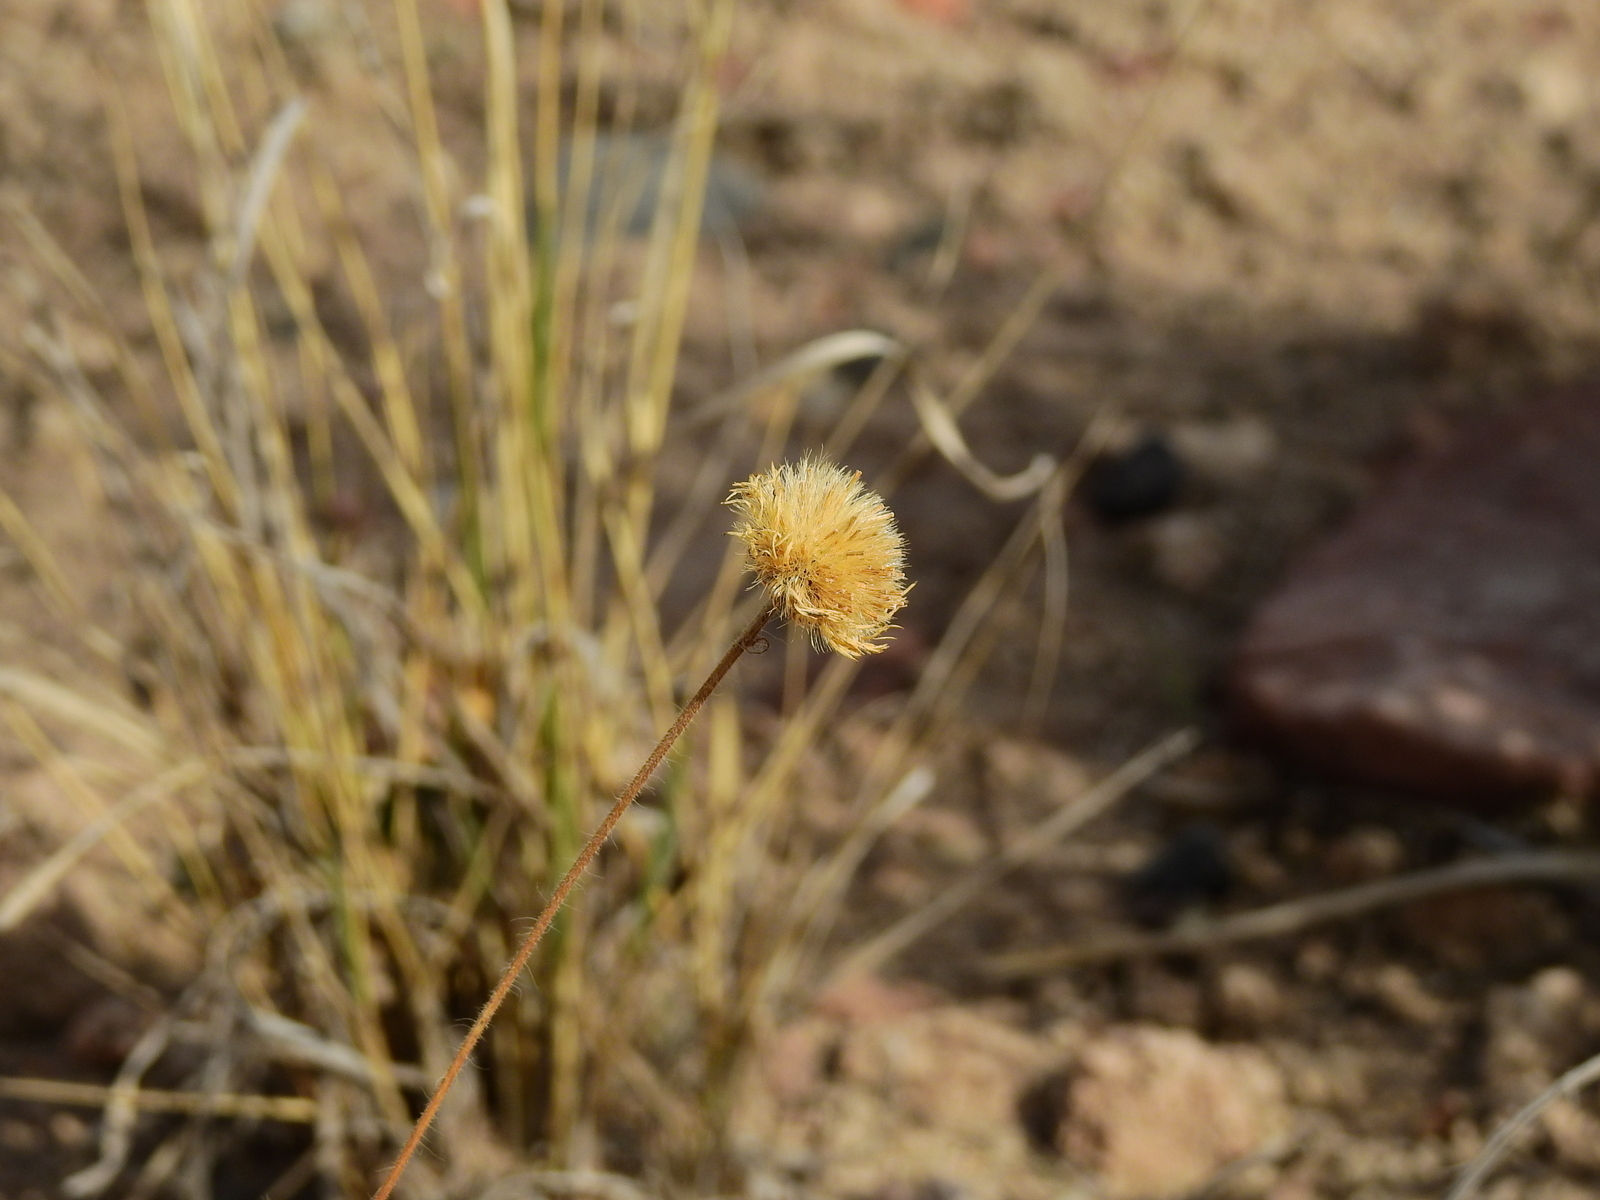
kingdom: Plantae
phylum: Tracheophyta
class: Magnoliopsida
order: Asterales
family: Asteraceae
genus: Hysterionica
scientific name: Hysterionica jasionoides
